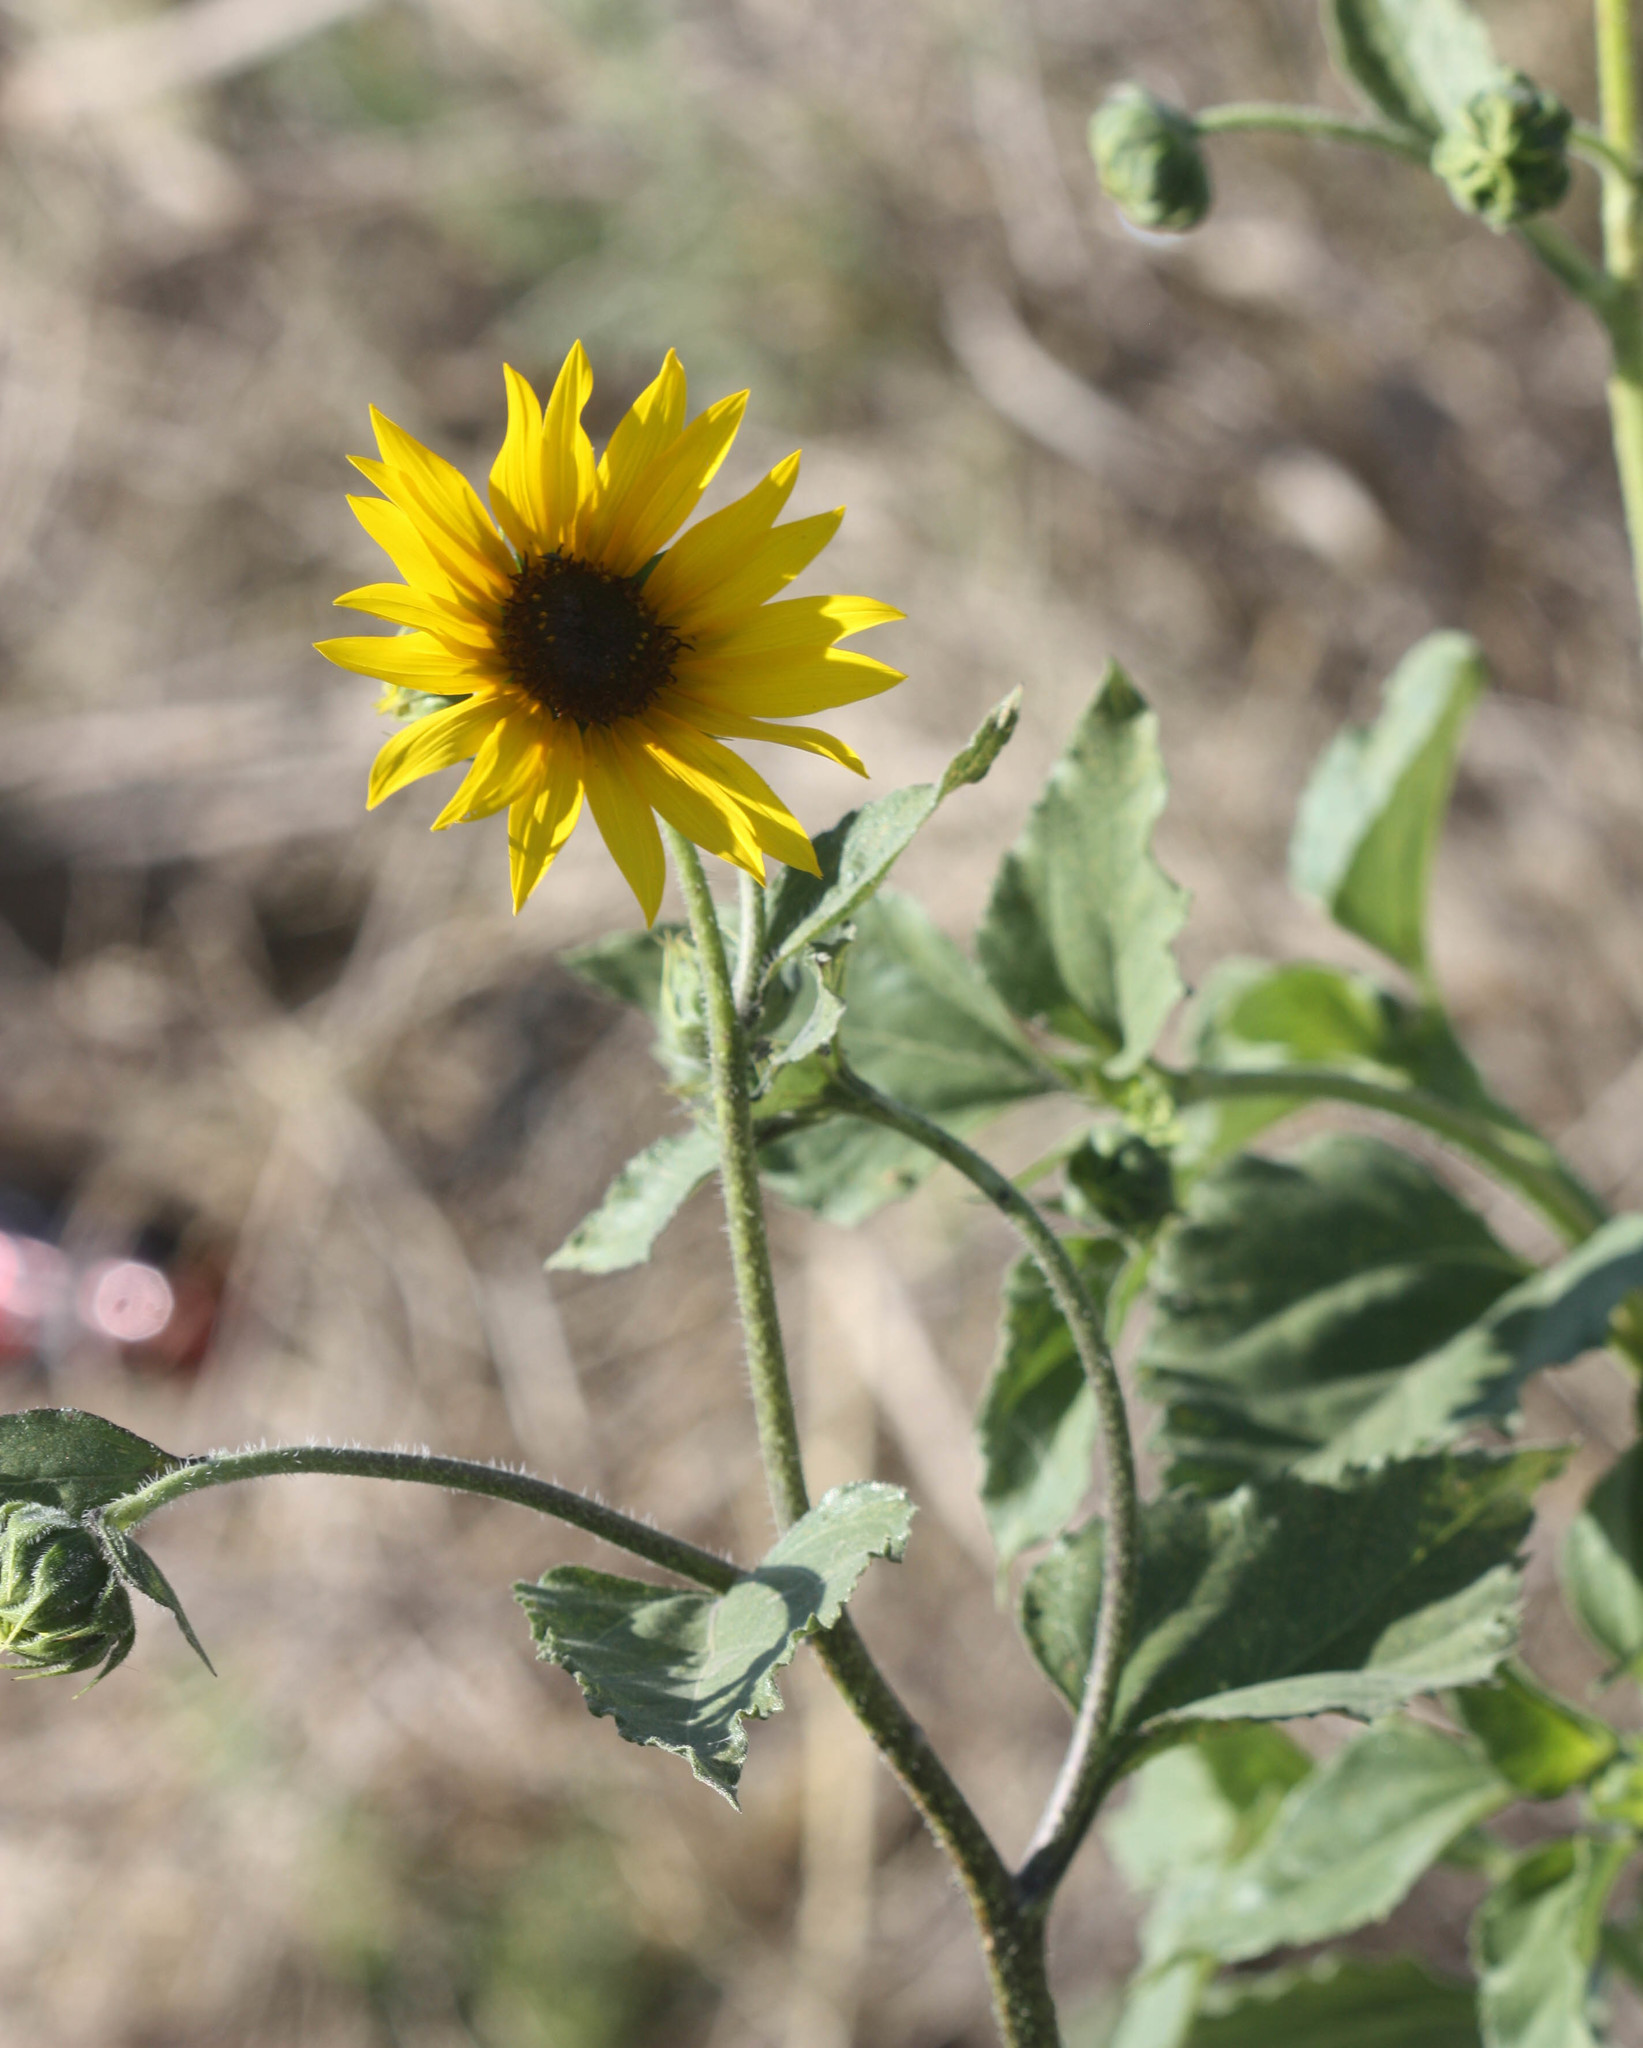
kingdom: Plantae
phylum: Tracheophyta
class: Magnoliopsida
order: Asterales
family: Asteraceae
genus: Helianthus
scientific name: Helianthus annuus
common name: Sunflower
